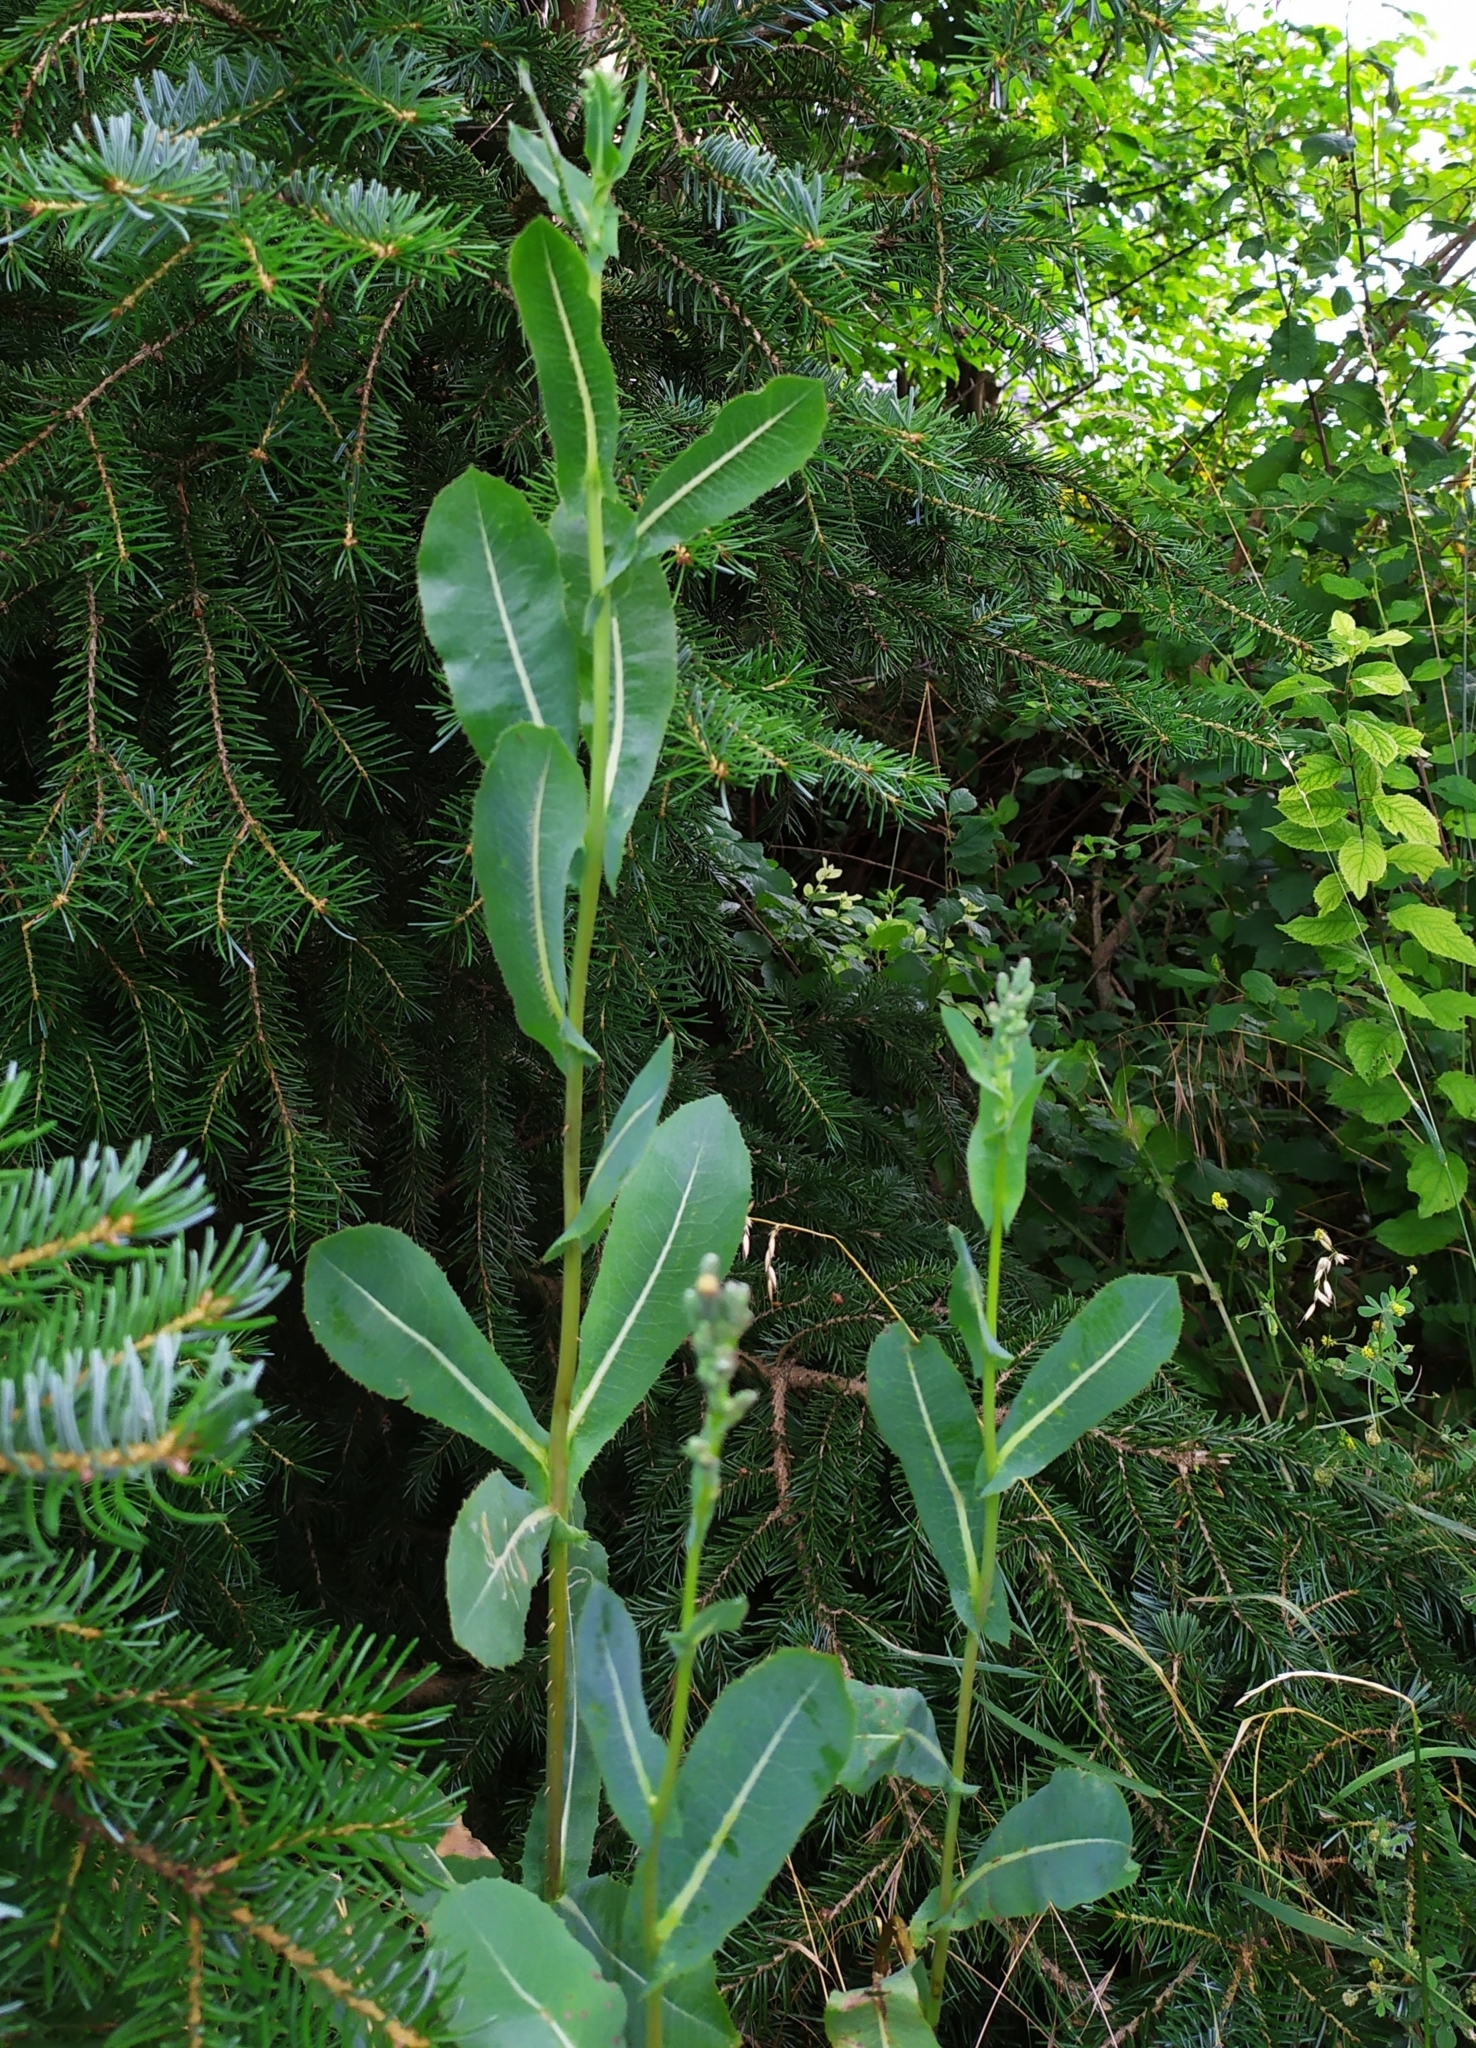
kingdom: Plantae
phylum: Tracheophyta
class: Magnoliopsida
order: Asterales
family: Asteraceae
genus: Lactuca
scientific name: Lactuca serriola
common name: Prickly lettuce
